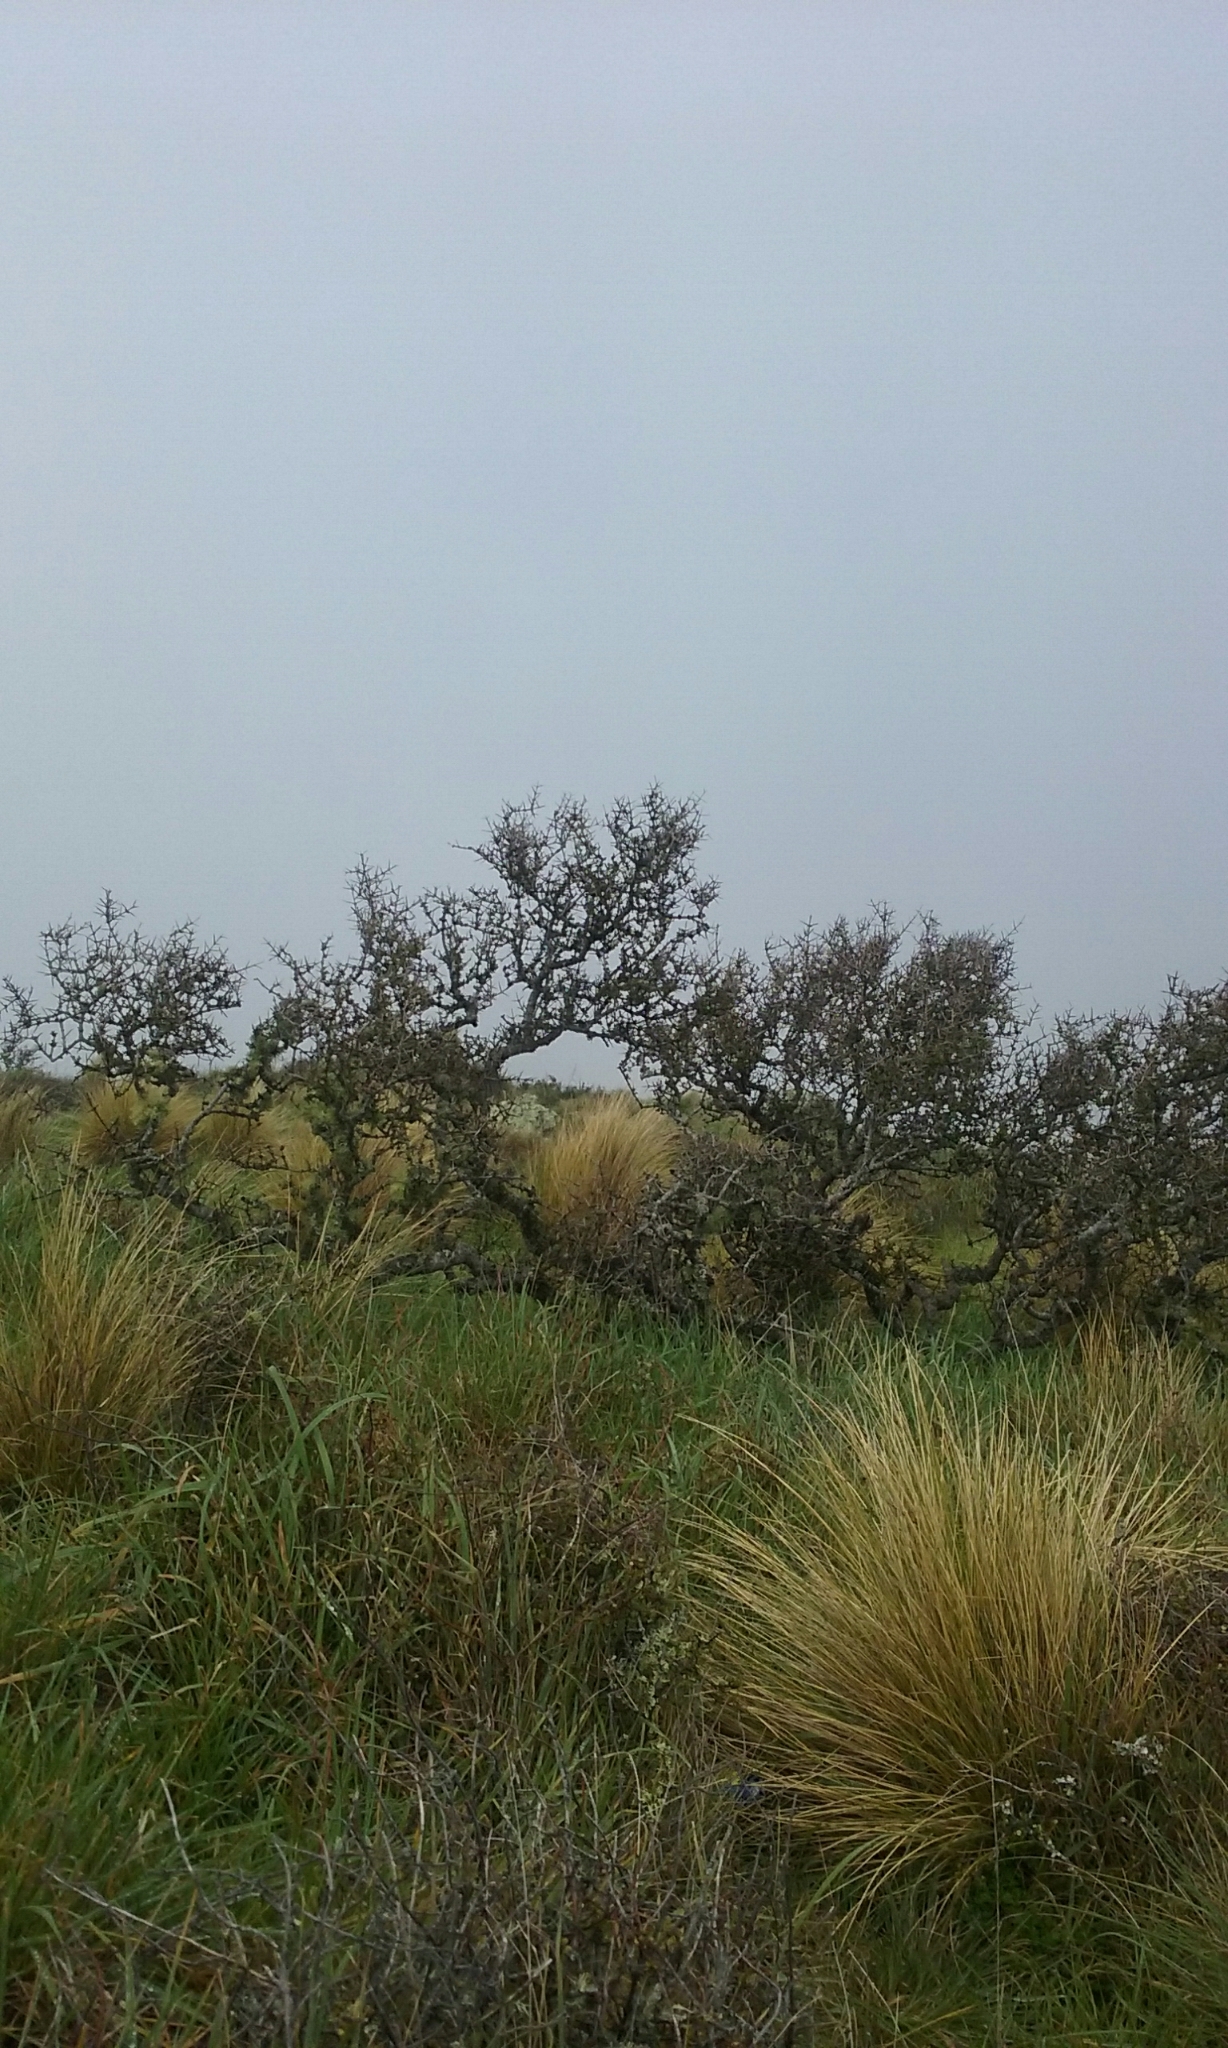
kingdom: Plantae
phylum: Tracheophyta
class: Magnoliopsida
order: Rosales
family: Rhamnaceae
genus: Discaria
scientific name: Discaria toumatou
